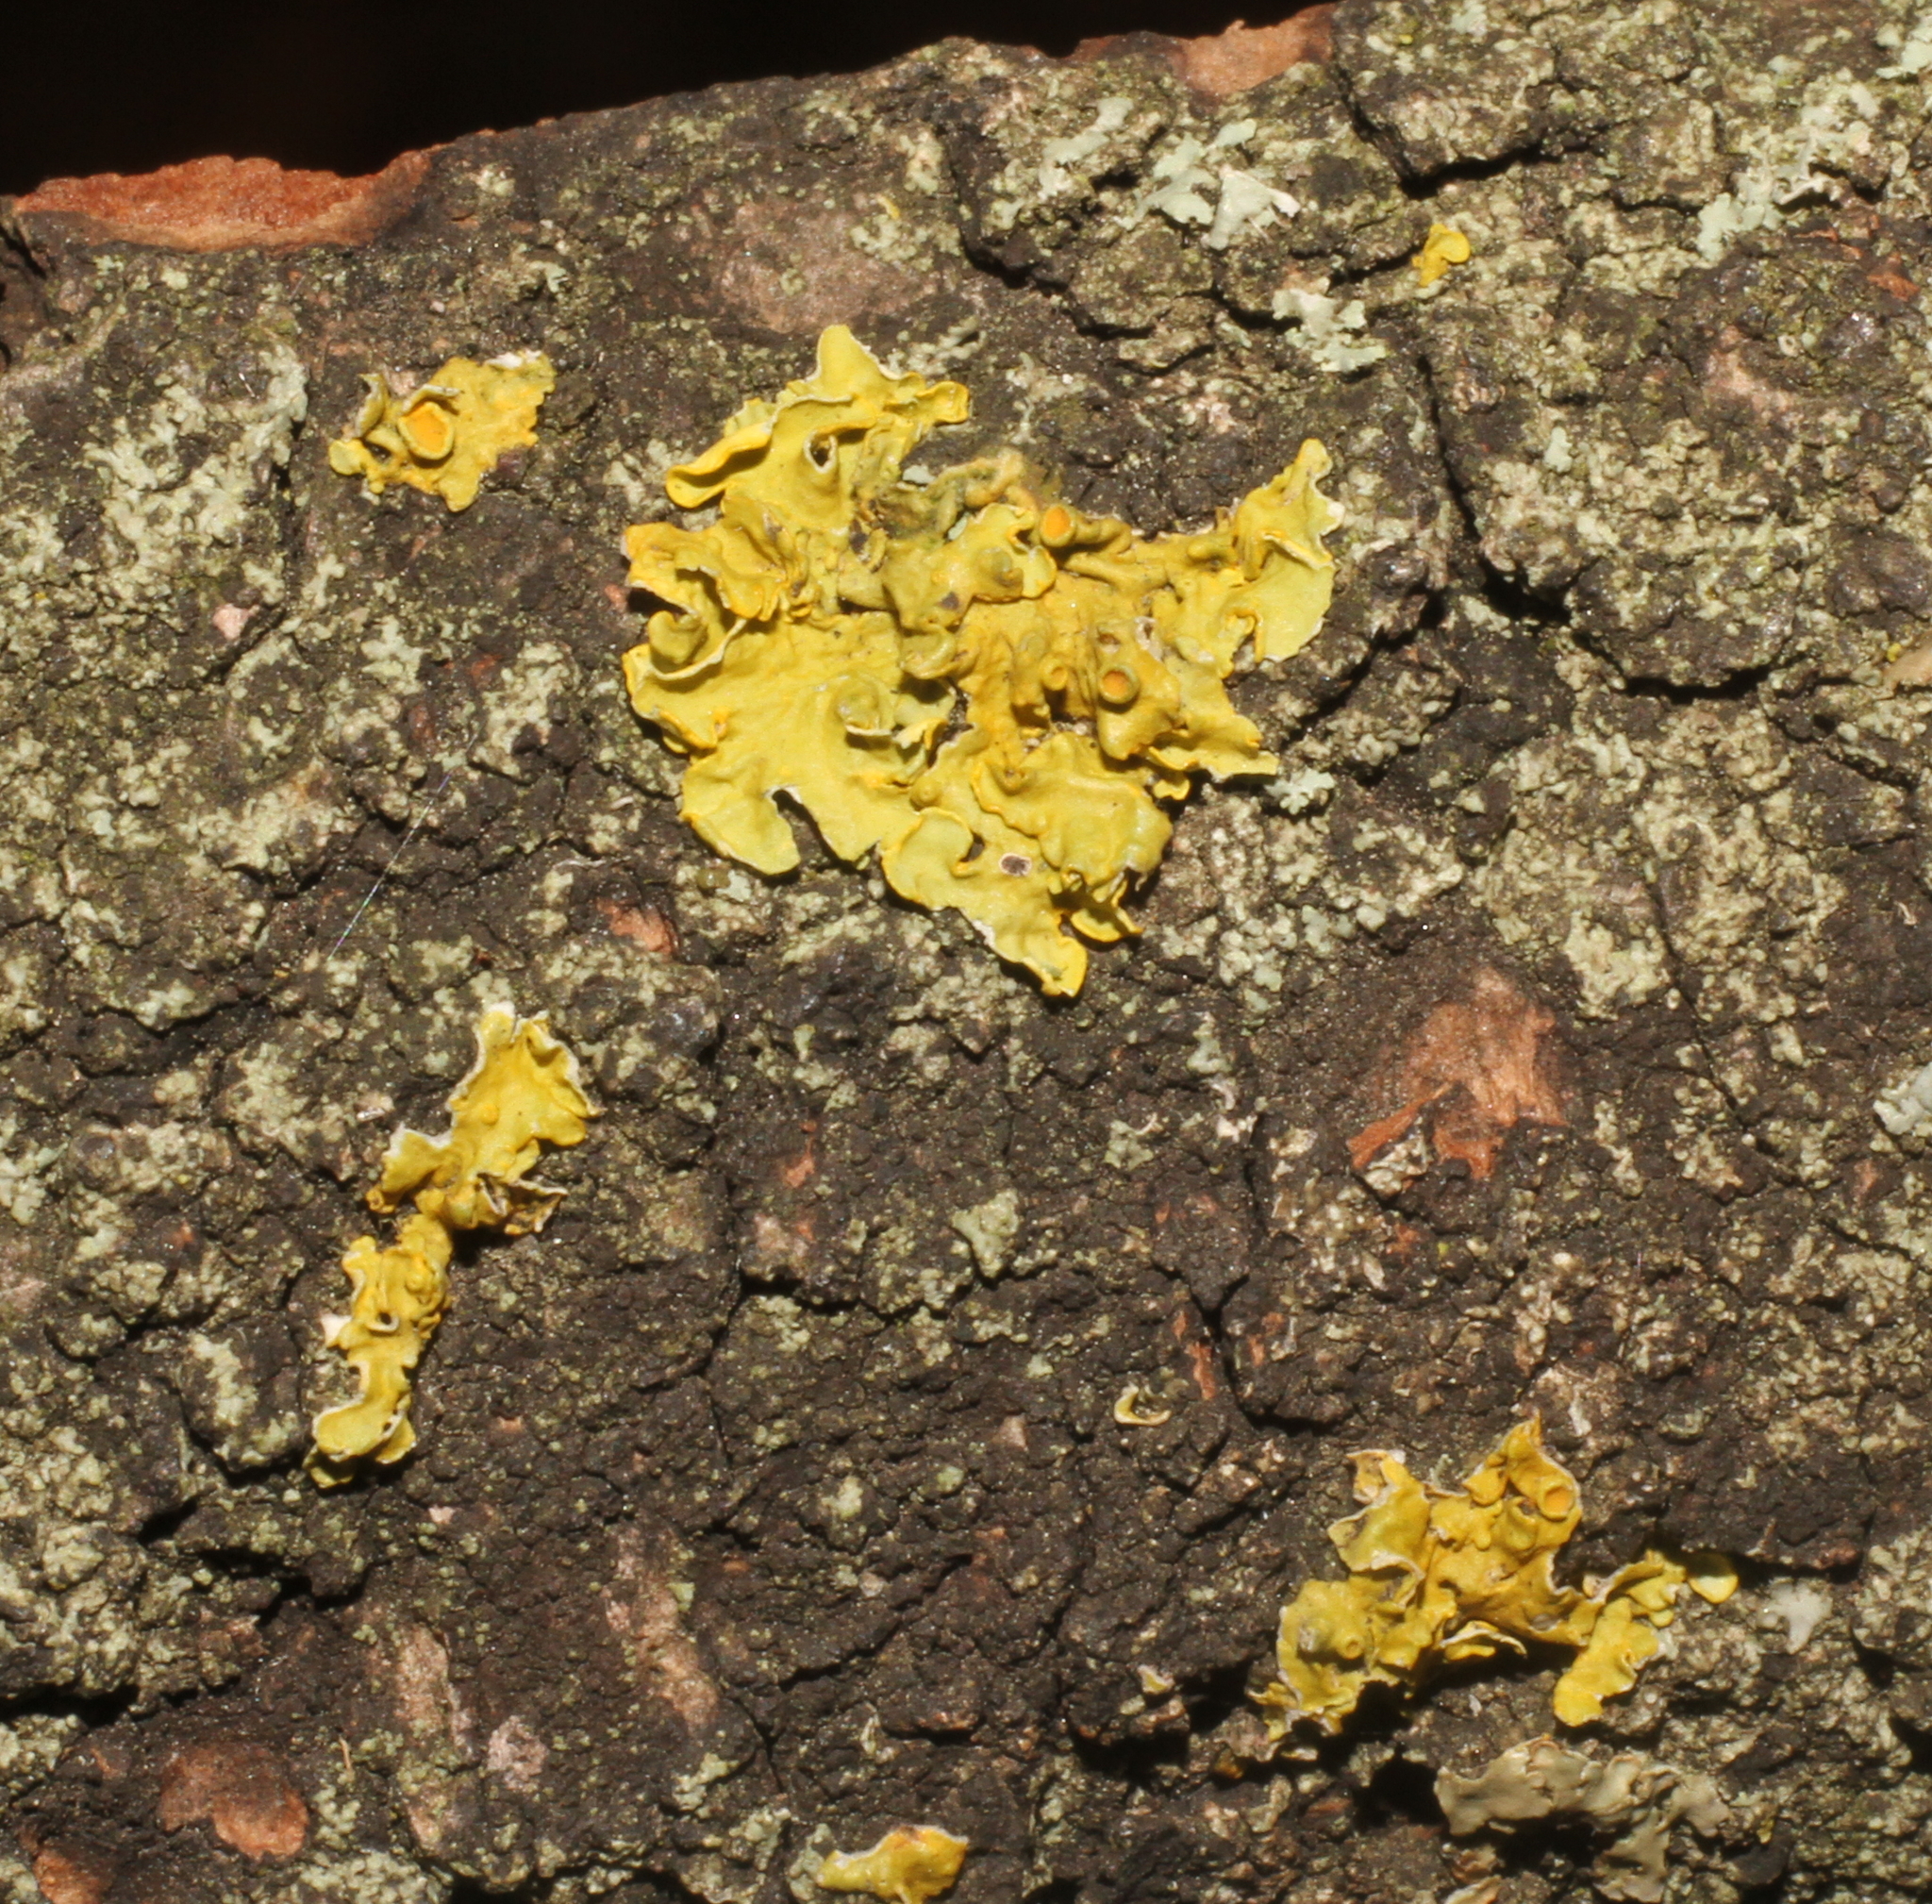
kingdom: Fungi
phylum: Ascomycota
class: Lecanoromycetes
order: Teloschistales
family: Teloschistaceae
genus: Xanthoria
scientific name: Xanthoria parietina
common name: Common orange lichen
